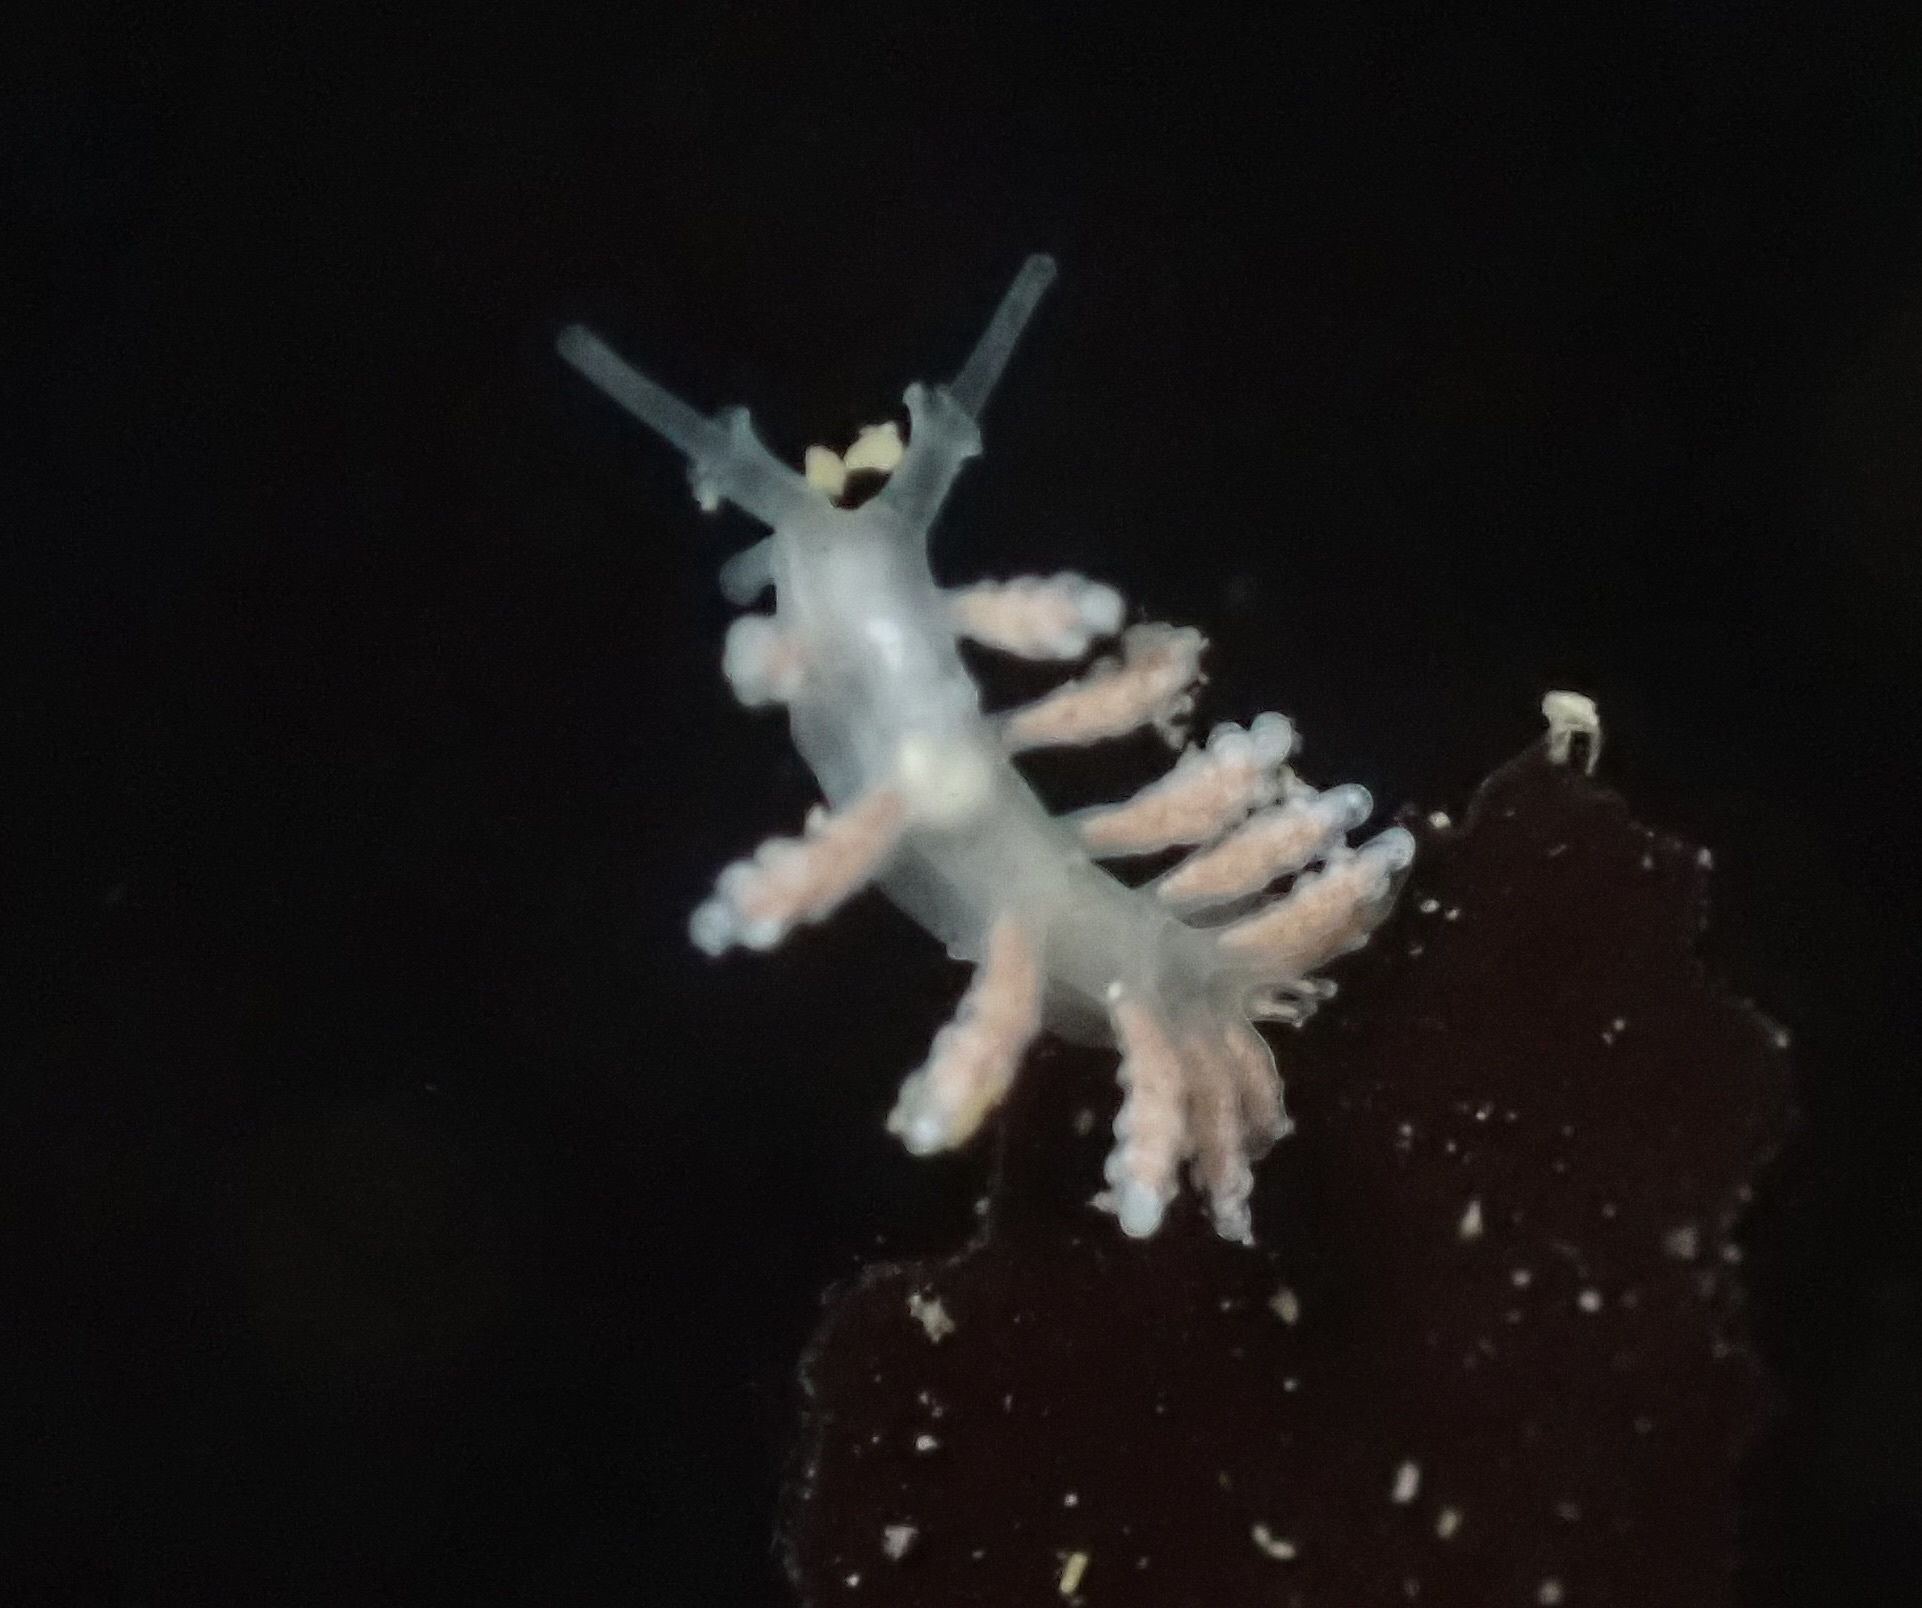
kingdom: Animalia
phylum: Mollusca
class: Gastropoda
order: Nudibranchia
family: Dotidae
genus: Doto
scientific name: Doto amyra
